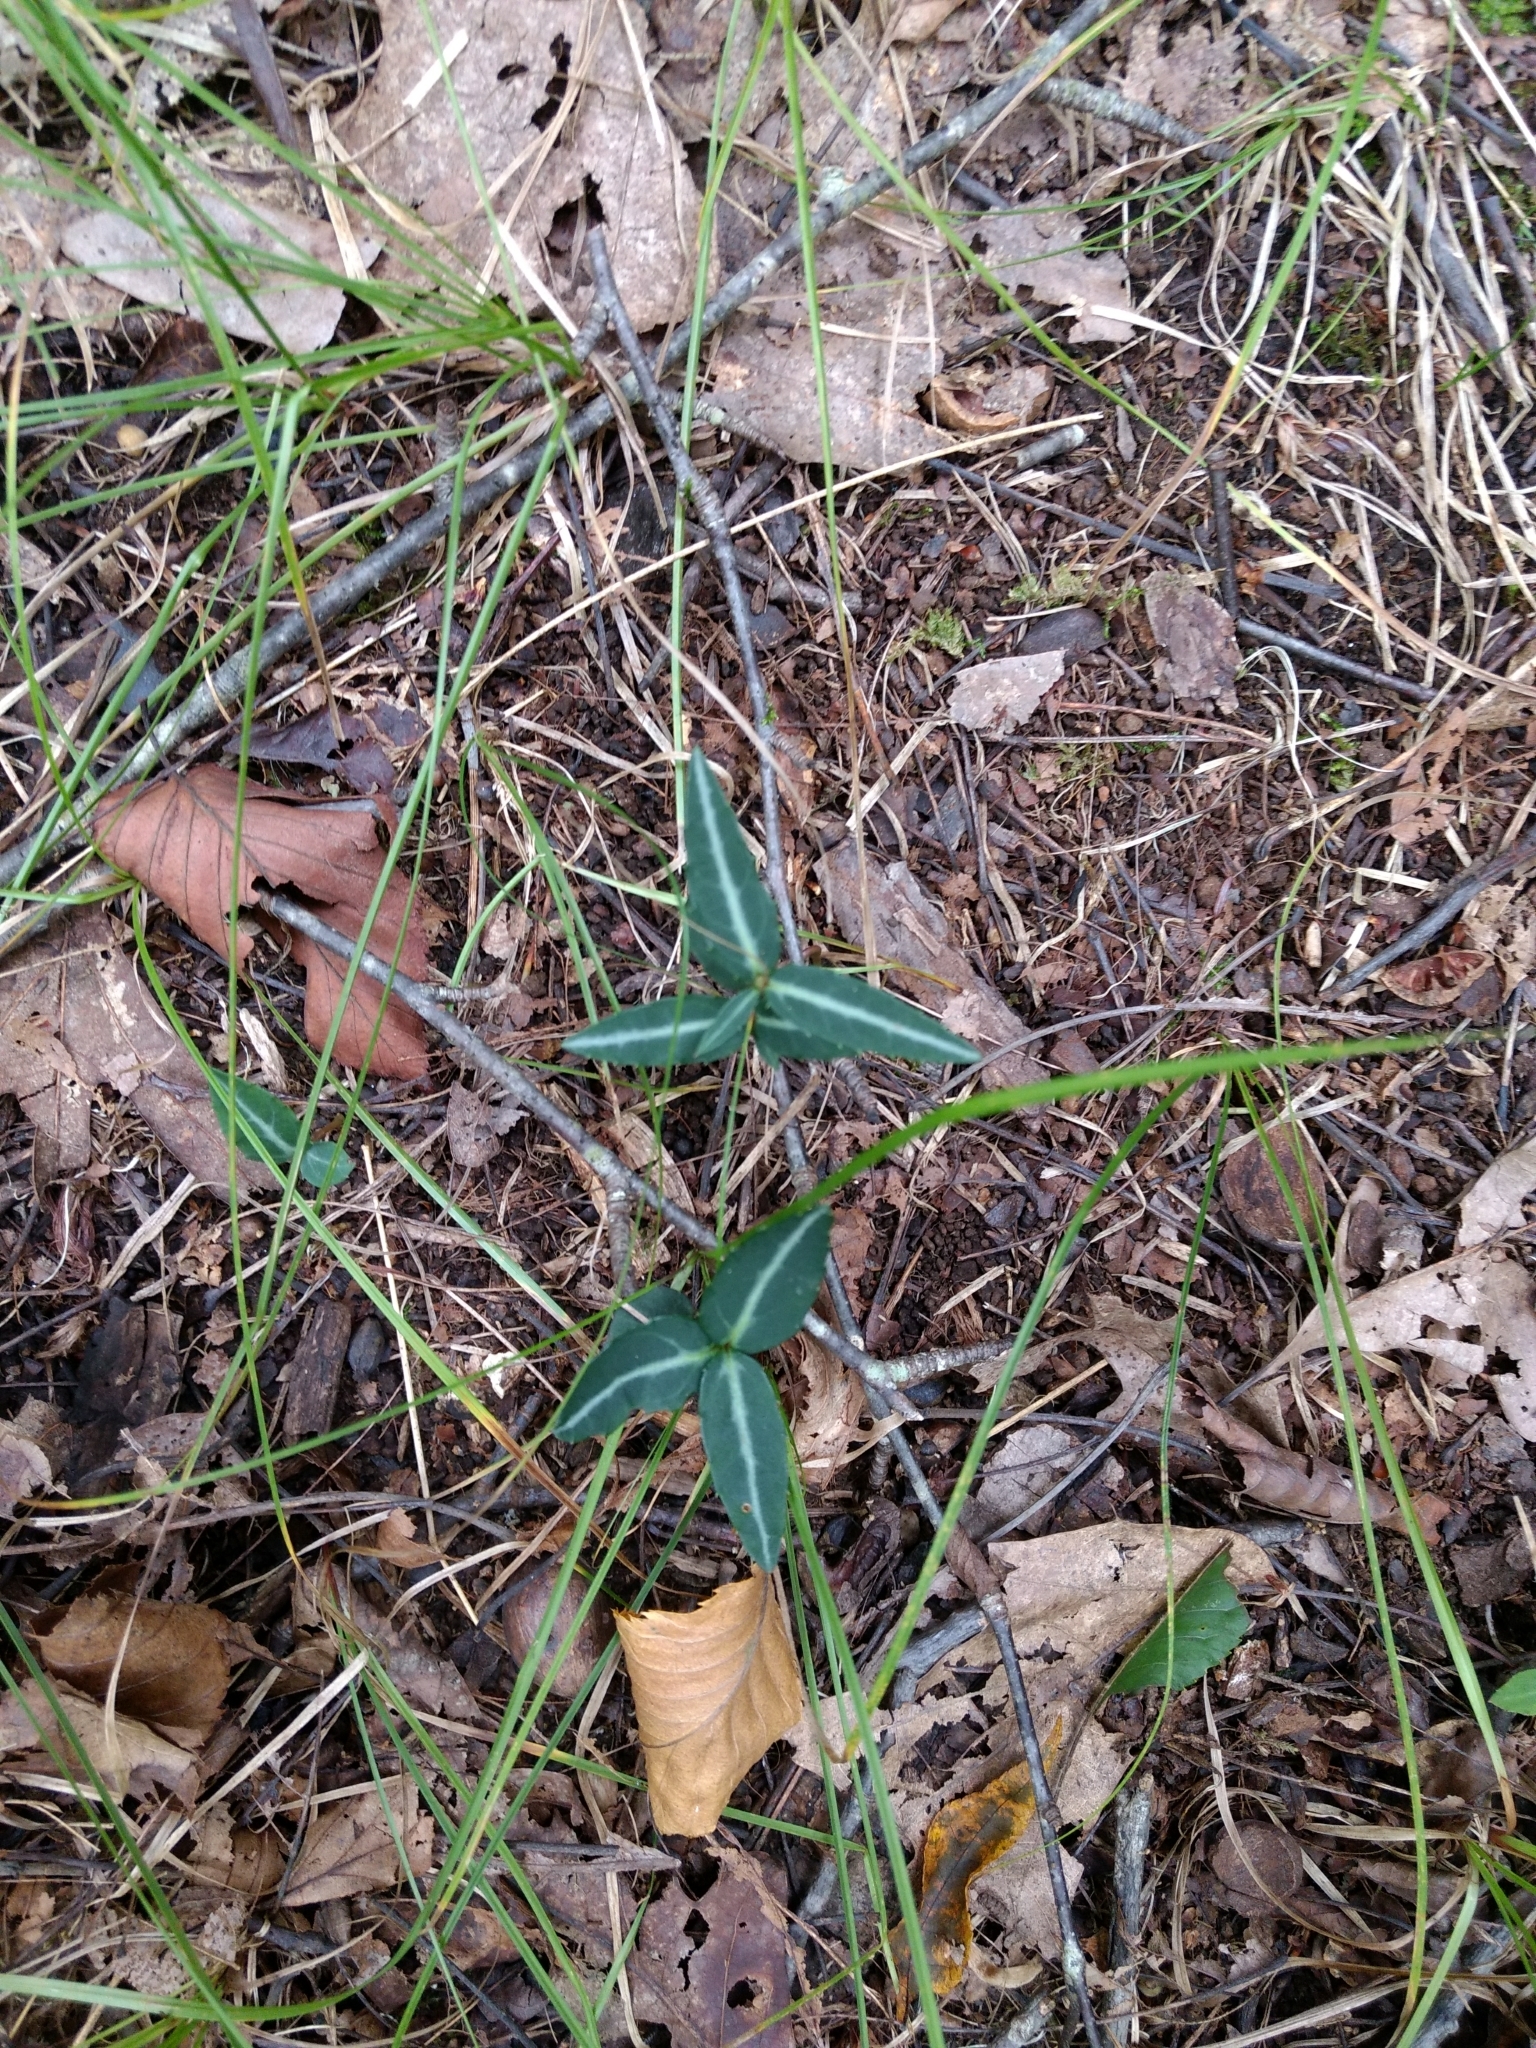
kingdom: Plantae
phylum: Tracheophyta
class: Magnoliopsida
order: Ericales
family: Ericaceae
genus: Chimaphila
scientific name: Chimaphila maculata
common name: Spotted pipsissewa
